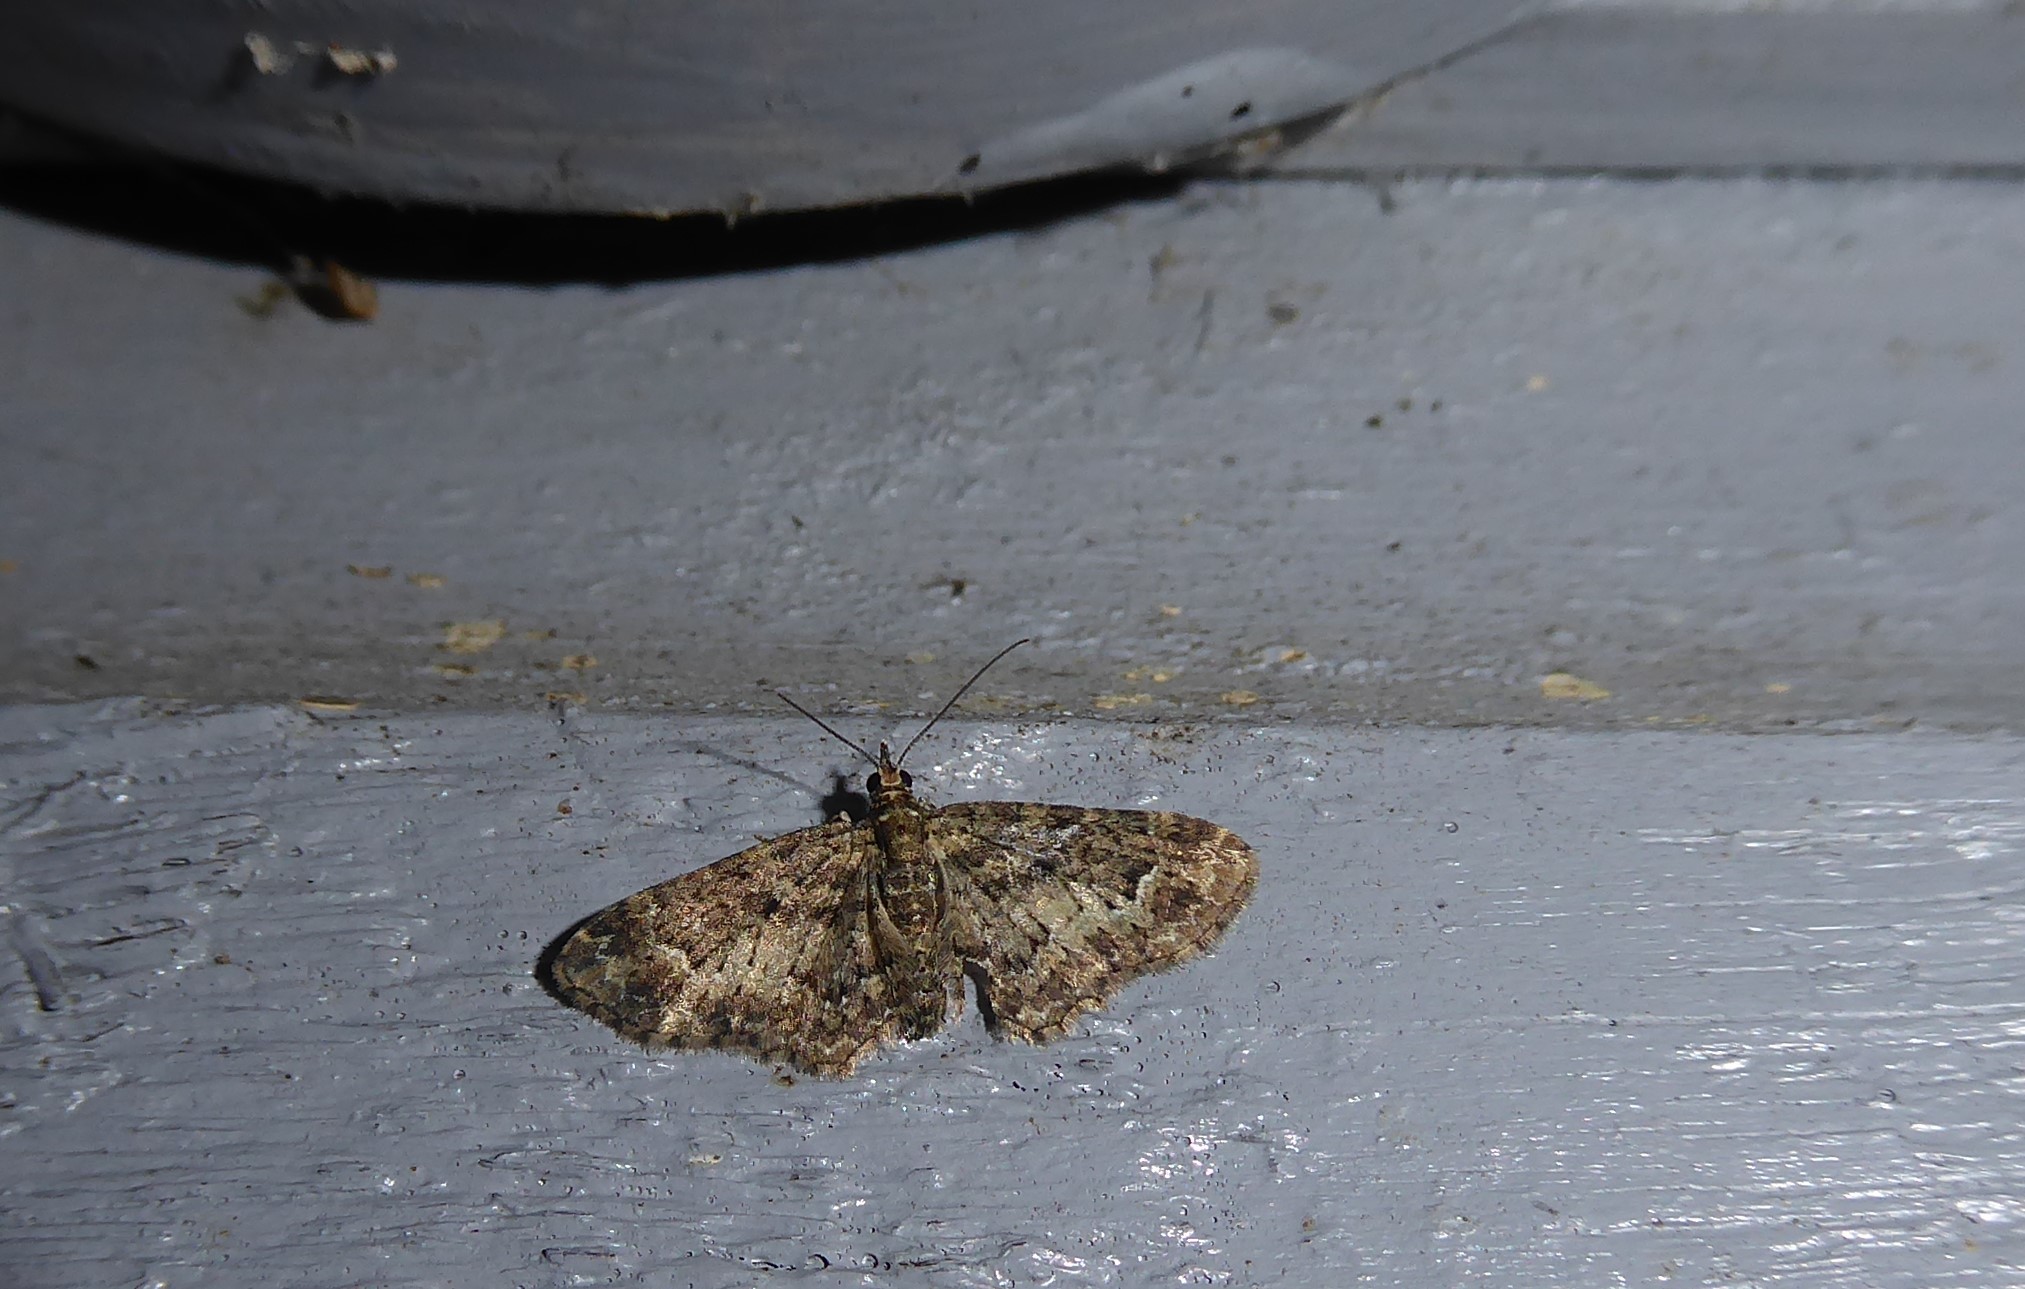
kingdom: Animalia
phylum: Arthropoda
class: Insecta
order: Lepidoptera
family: Geometridae
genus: Pasiphilodes
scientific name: Pasiphilodes testulata
